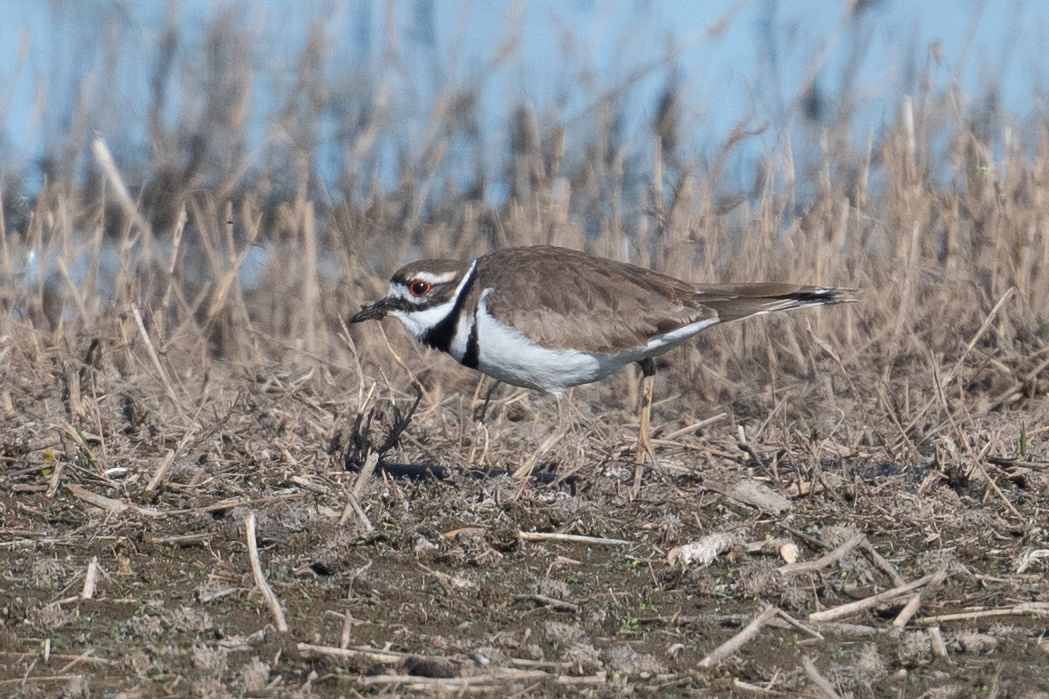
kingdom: Animalia
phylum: Chordata
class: Aves
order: Charadriiformes
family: Charadriidae
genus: Charadrius
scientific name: Charadrius vociferus
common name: Killdeer
